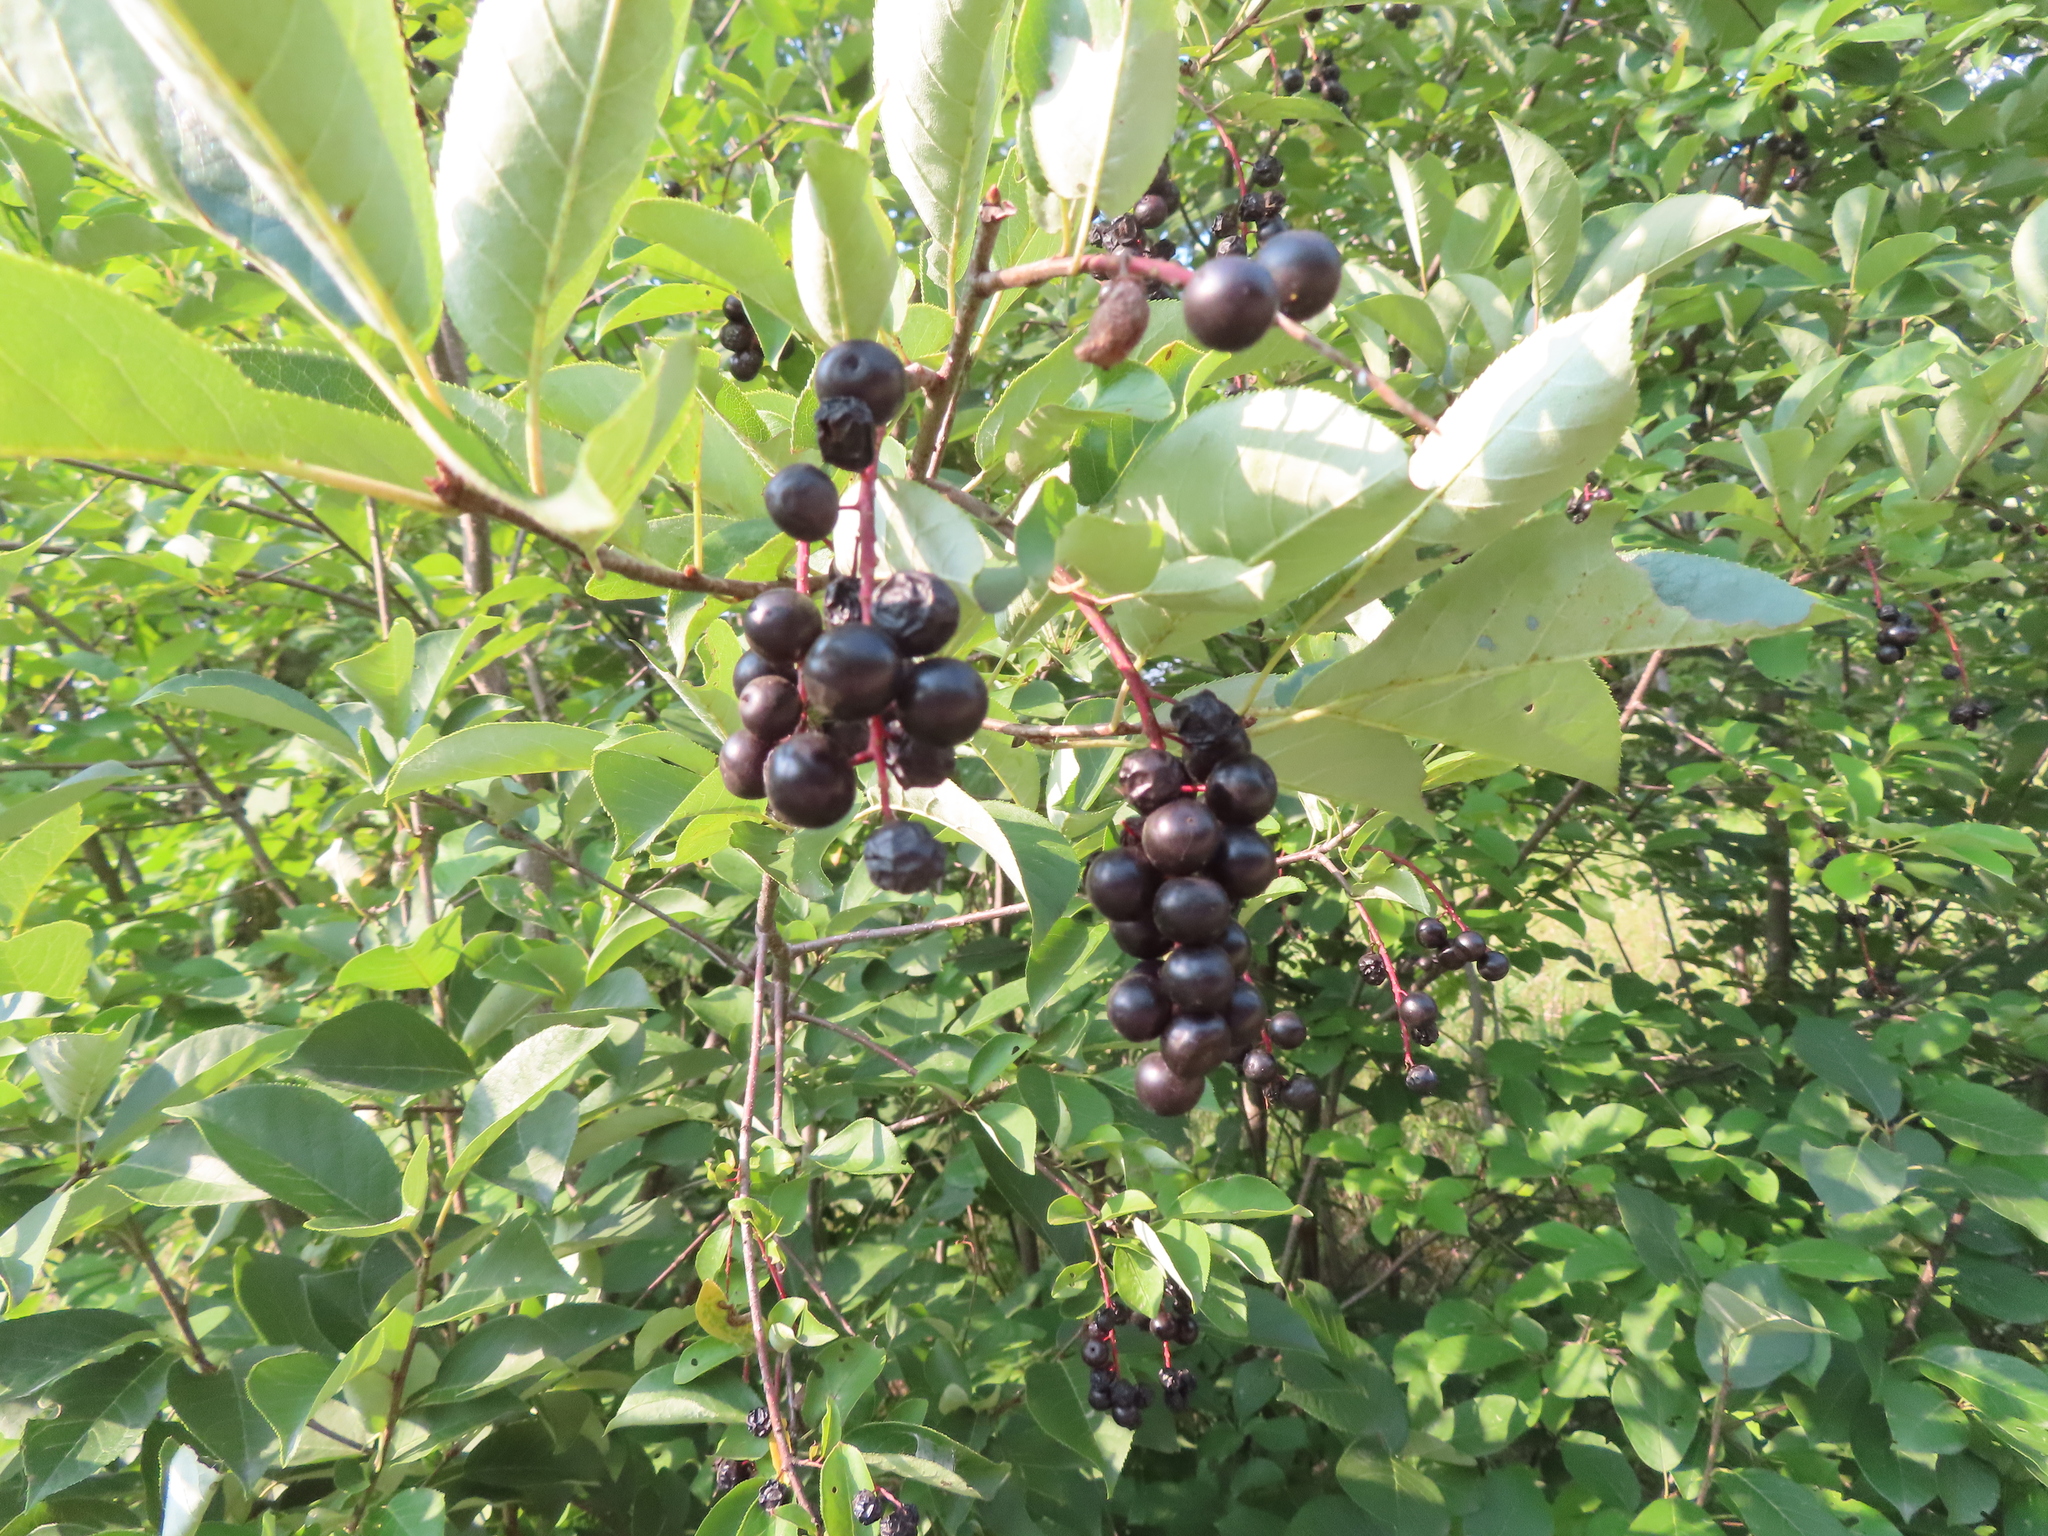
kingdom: Plantae
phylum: Tracheophyta
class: Magnoliopsida
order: Rosales
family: Rosaceae
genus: Prunus
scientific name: Prunus virginiana
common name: Chokecherry
